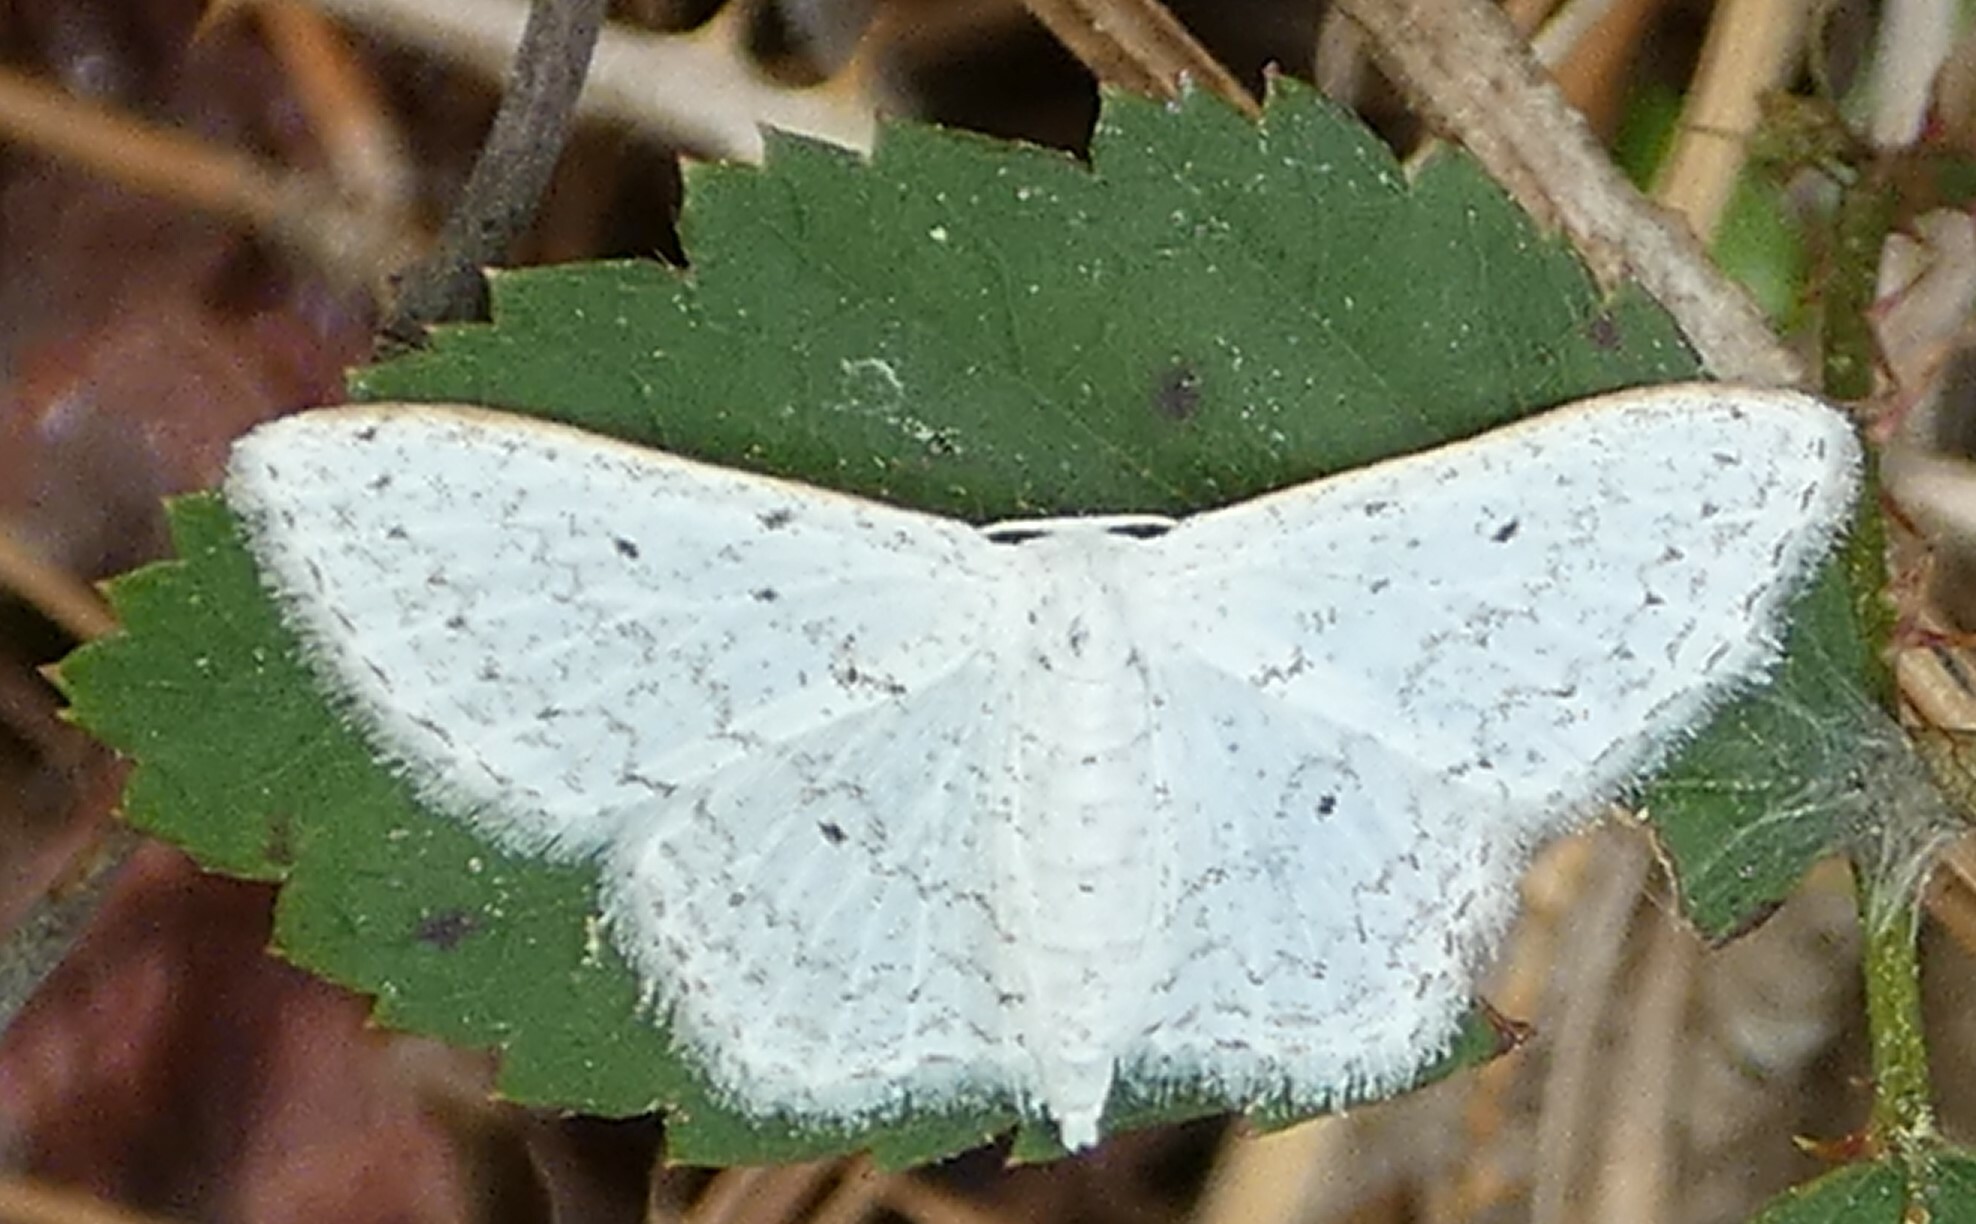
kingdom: Animalia
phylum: Arthropoda
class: Insecta
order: Lepidoptera
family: Geometridae
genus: Idaea
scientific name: Idaea tacturata
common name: Dot-lined wave
